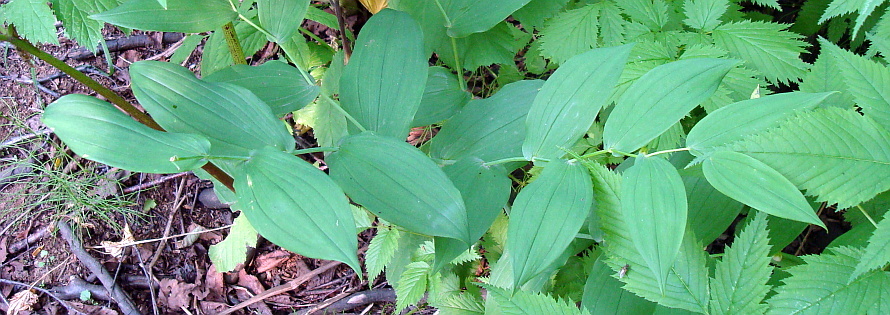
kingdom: Plantae
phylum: Tracheophyta
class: Liliopsida
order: Liliales
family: Liliaceae
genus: Streptopus
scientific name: Streptopus amplexifolius
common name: Clasp twisted stalk
